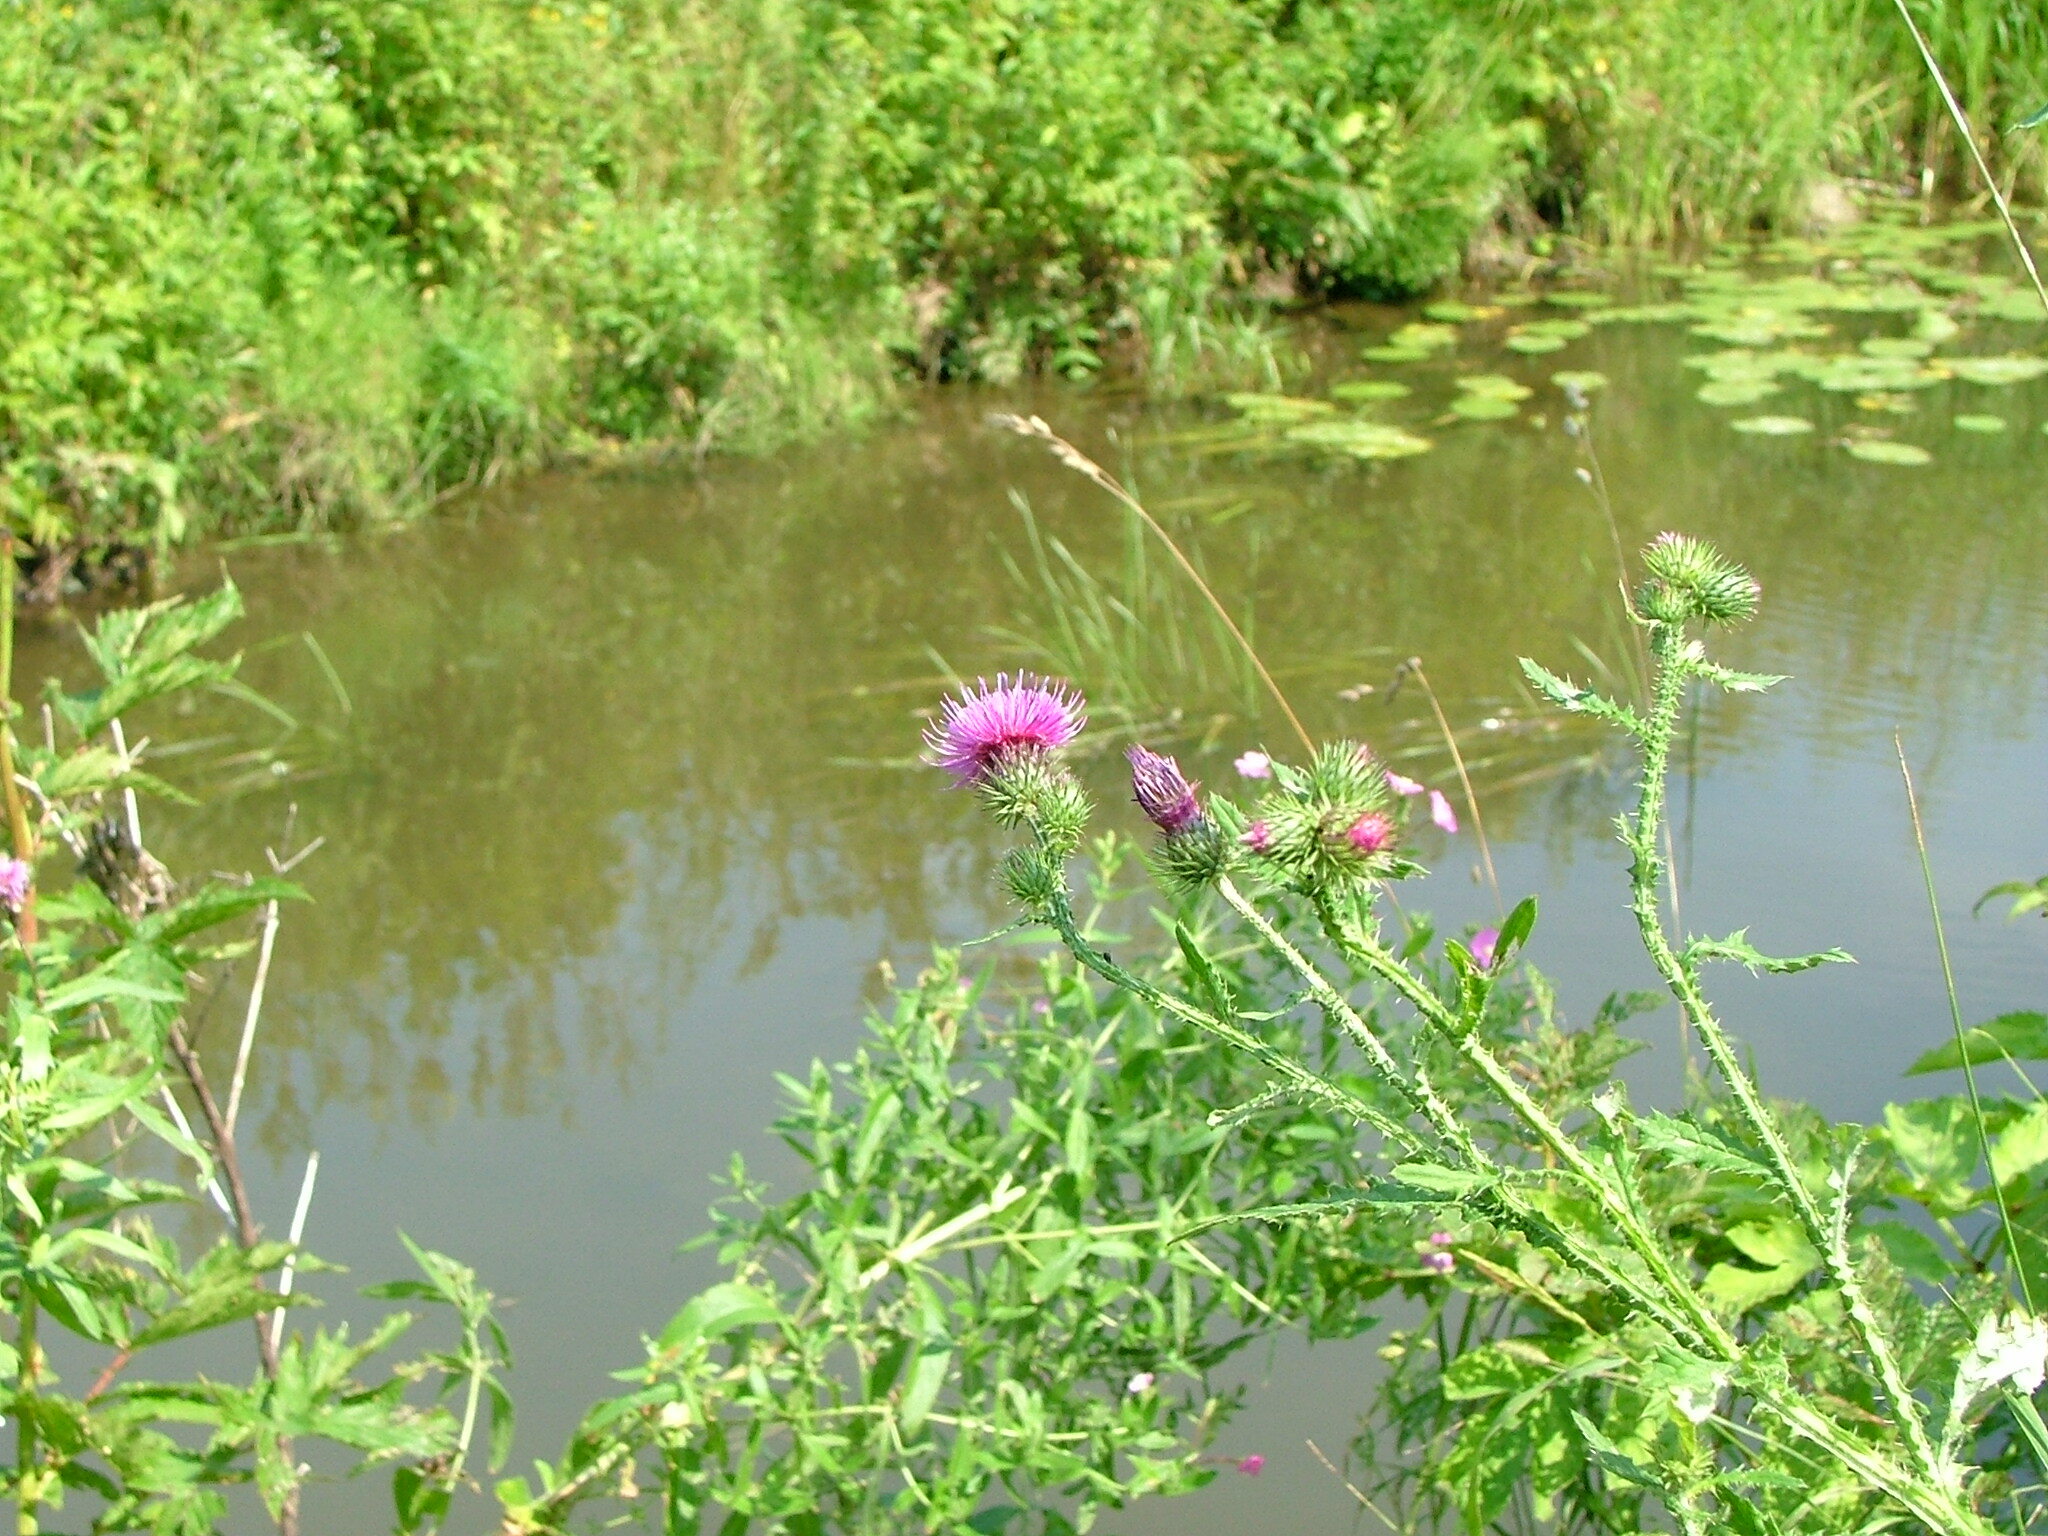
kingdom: Plantae
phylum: Tracheophyta
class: Magnoliopsida
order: Asterales
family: Asteraceae
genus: Carduus
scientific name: Carduus crispus
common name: Welted thistle
